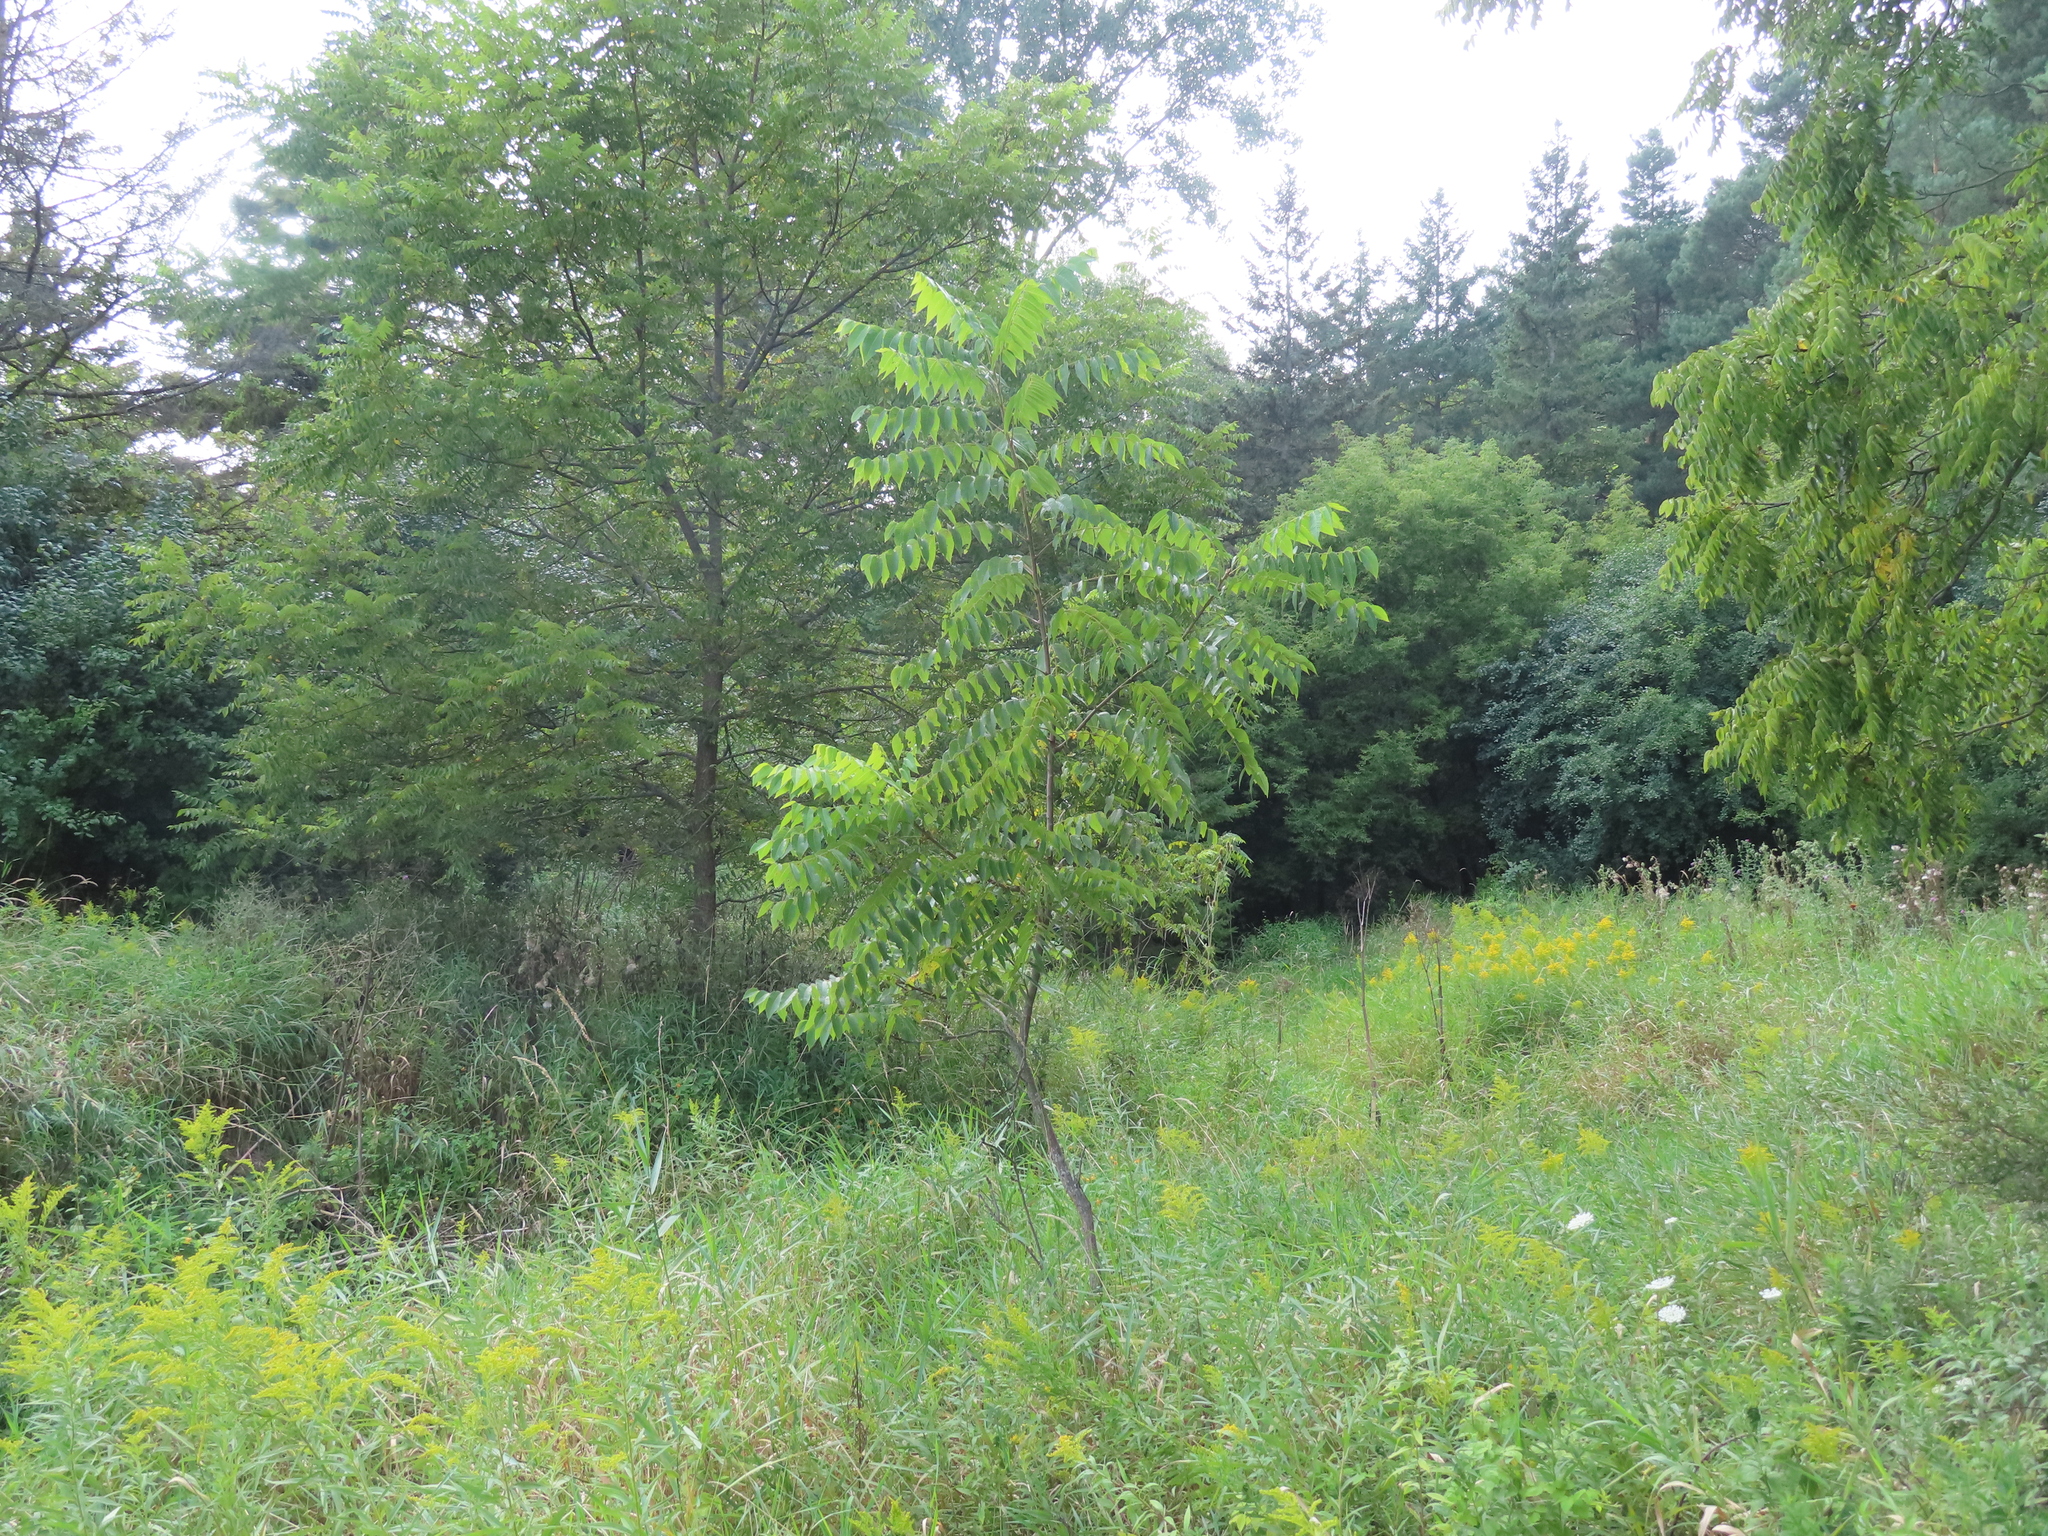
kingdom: Plantae
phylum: Tracheophyta
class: Magnoliopsida
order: Fagales
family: Juglandaceae
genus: Juglans
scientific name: Juglans nigra
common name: Black walnut
